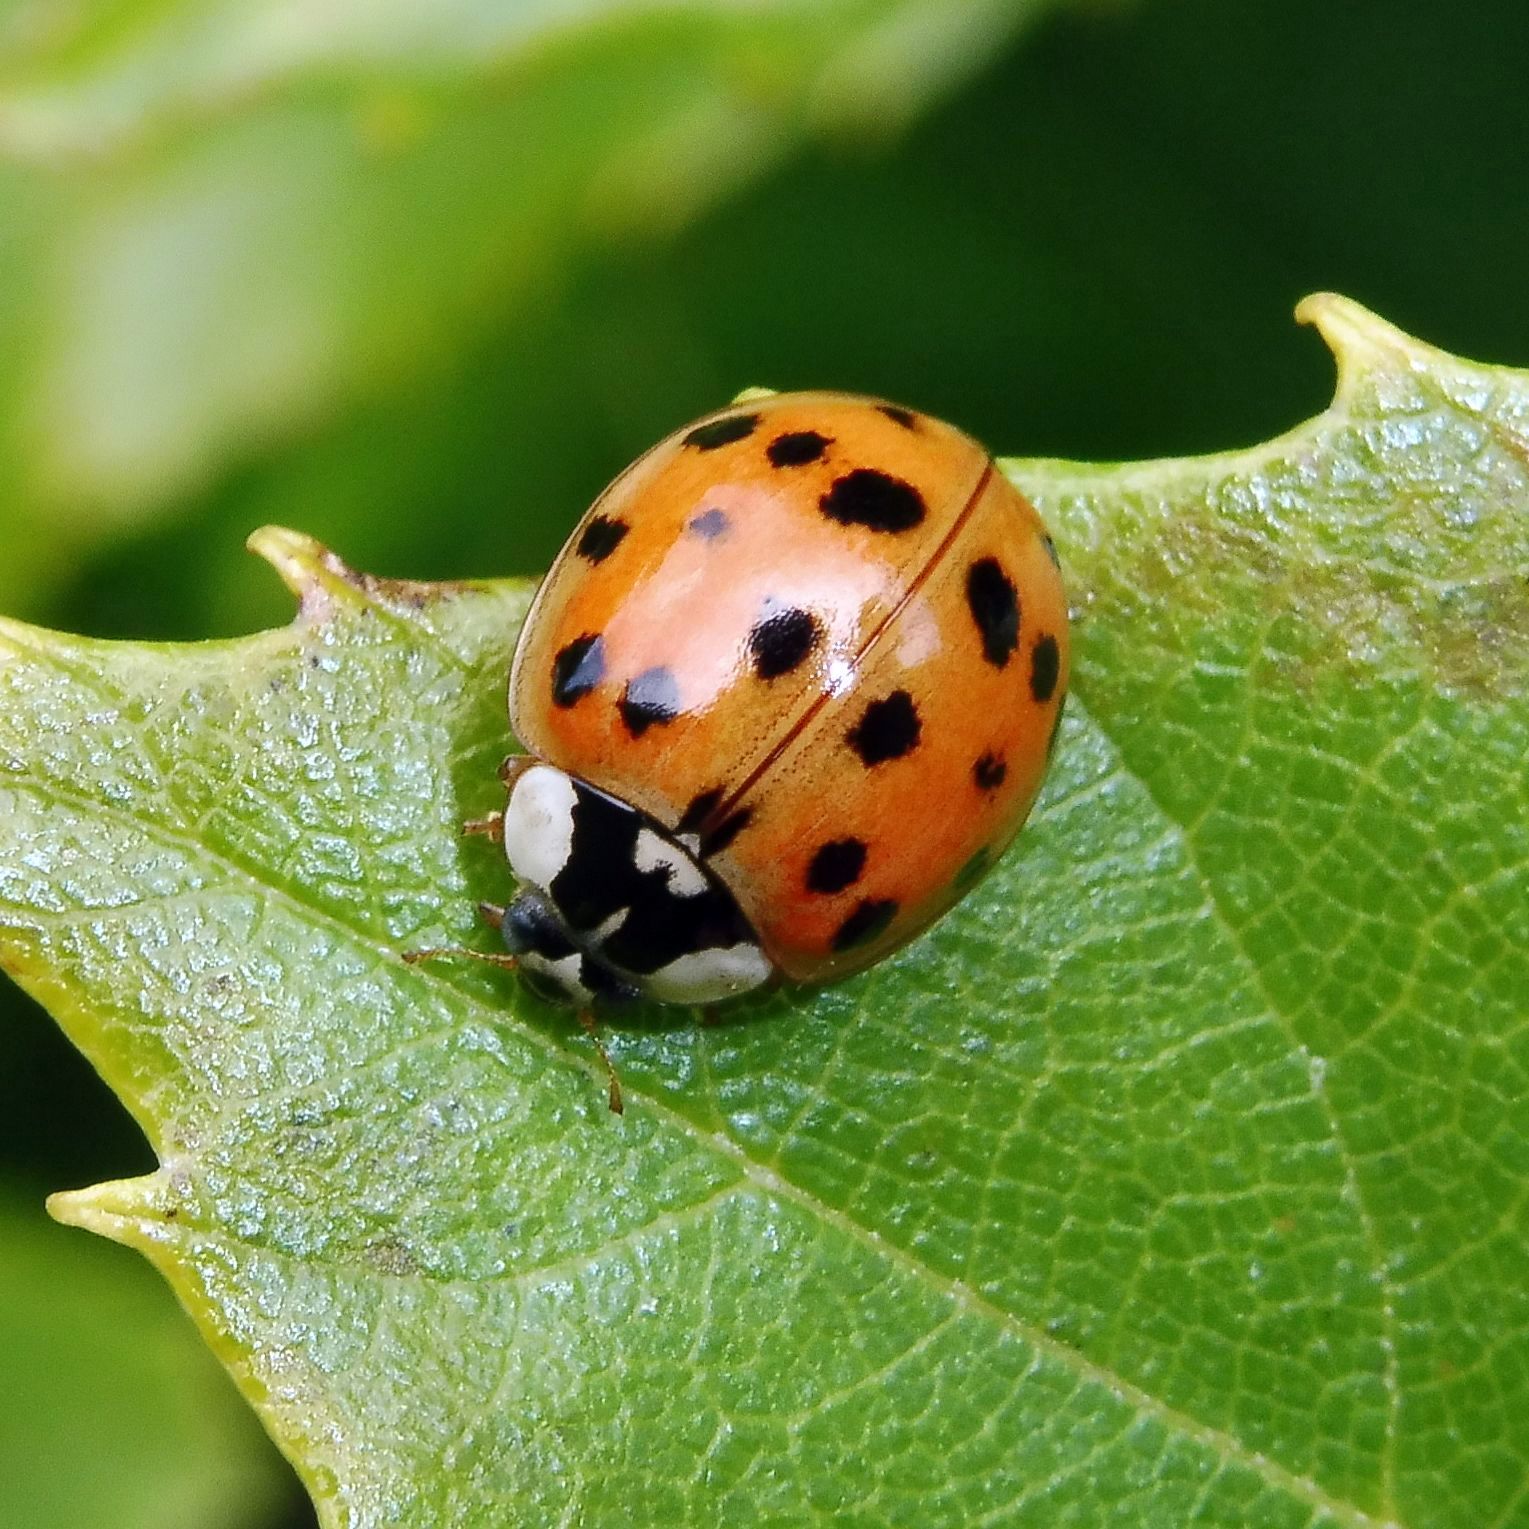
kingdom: Animalia
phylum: Arthropoda
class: Insecta
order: Coleoptera
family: Coccinellidae
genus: Harmonia
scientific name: Harmonia axyridis
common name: Harlequin ladybird
